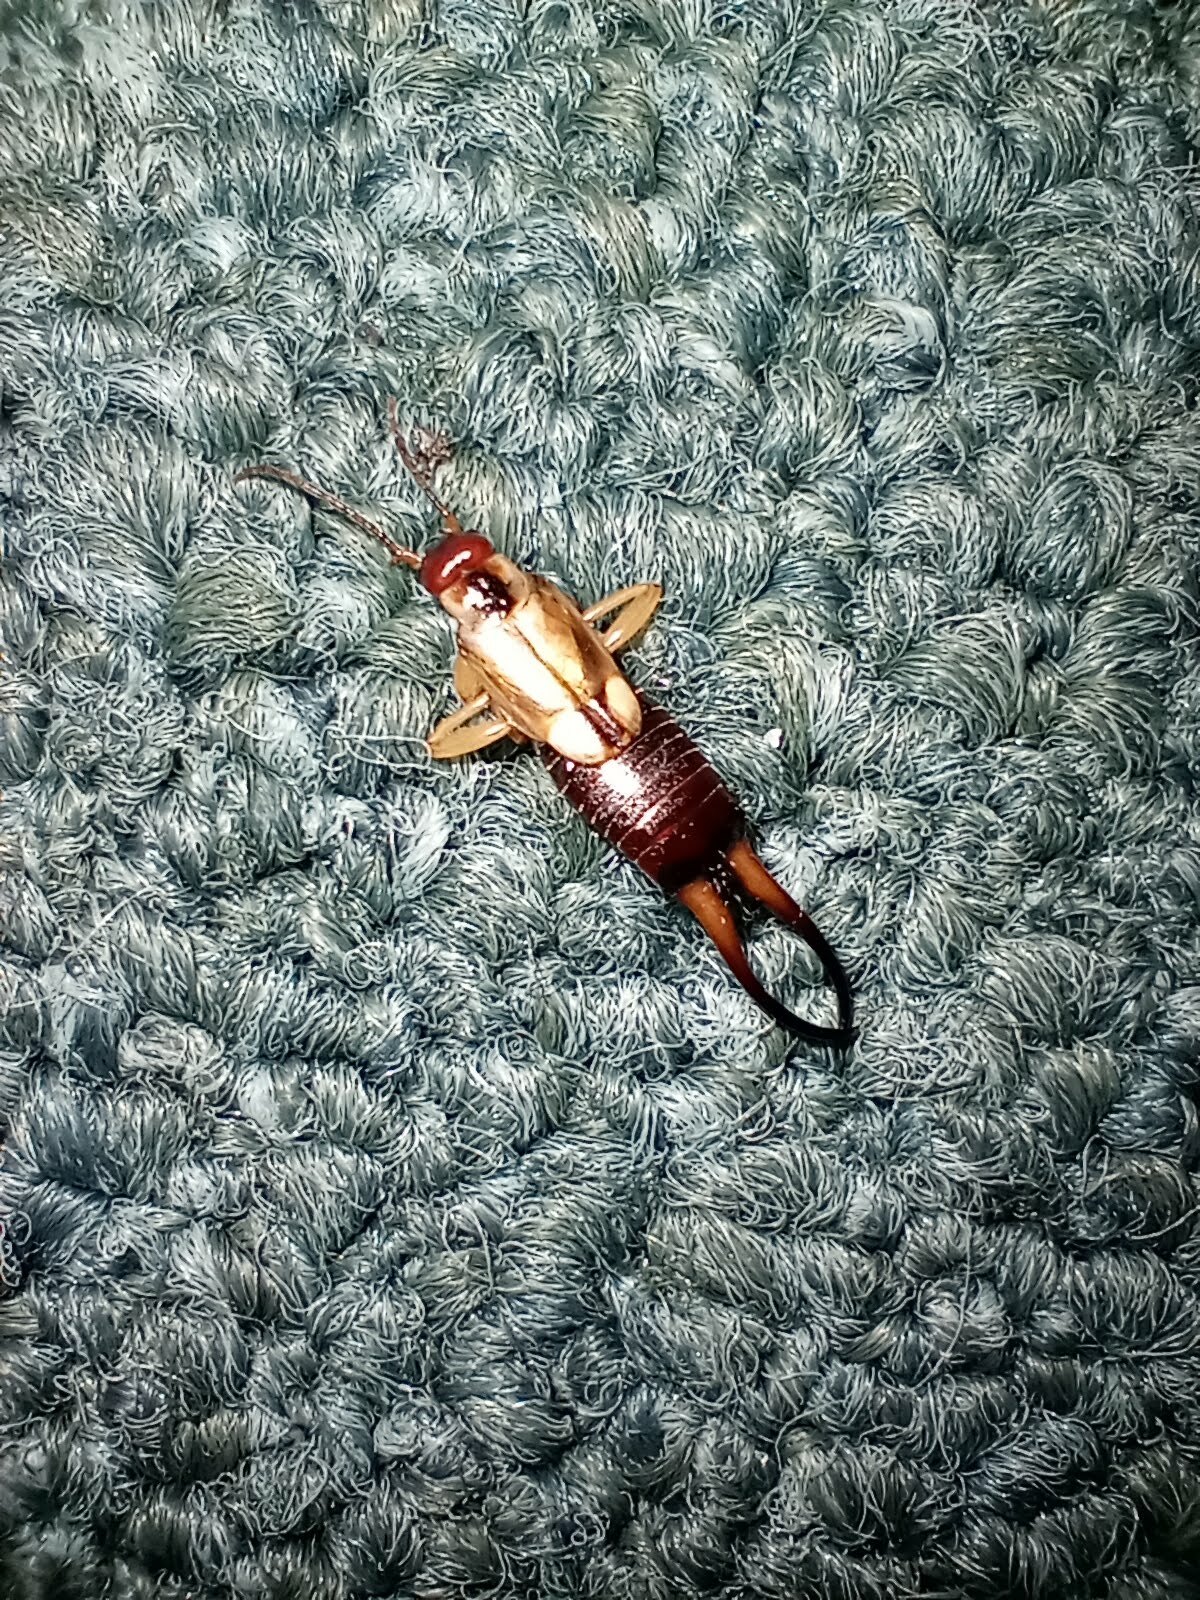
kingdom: Animalia
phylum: Arthropoda
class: Insecta
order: Dermaptera
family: Forficulidae
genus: Forficula
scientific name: Forficula dentata
